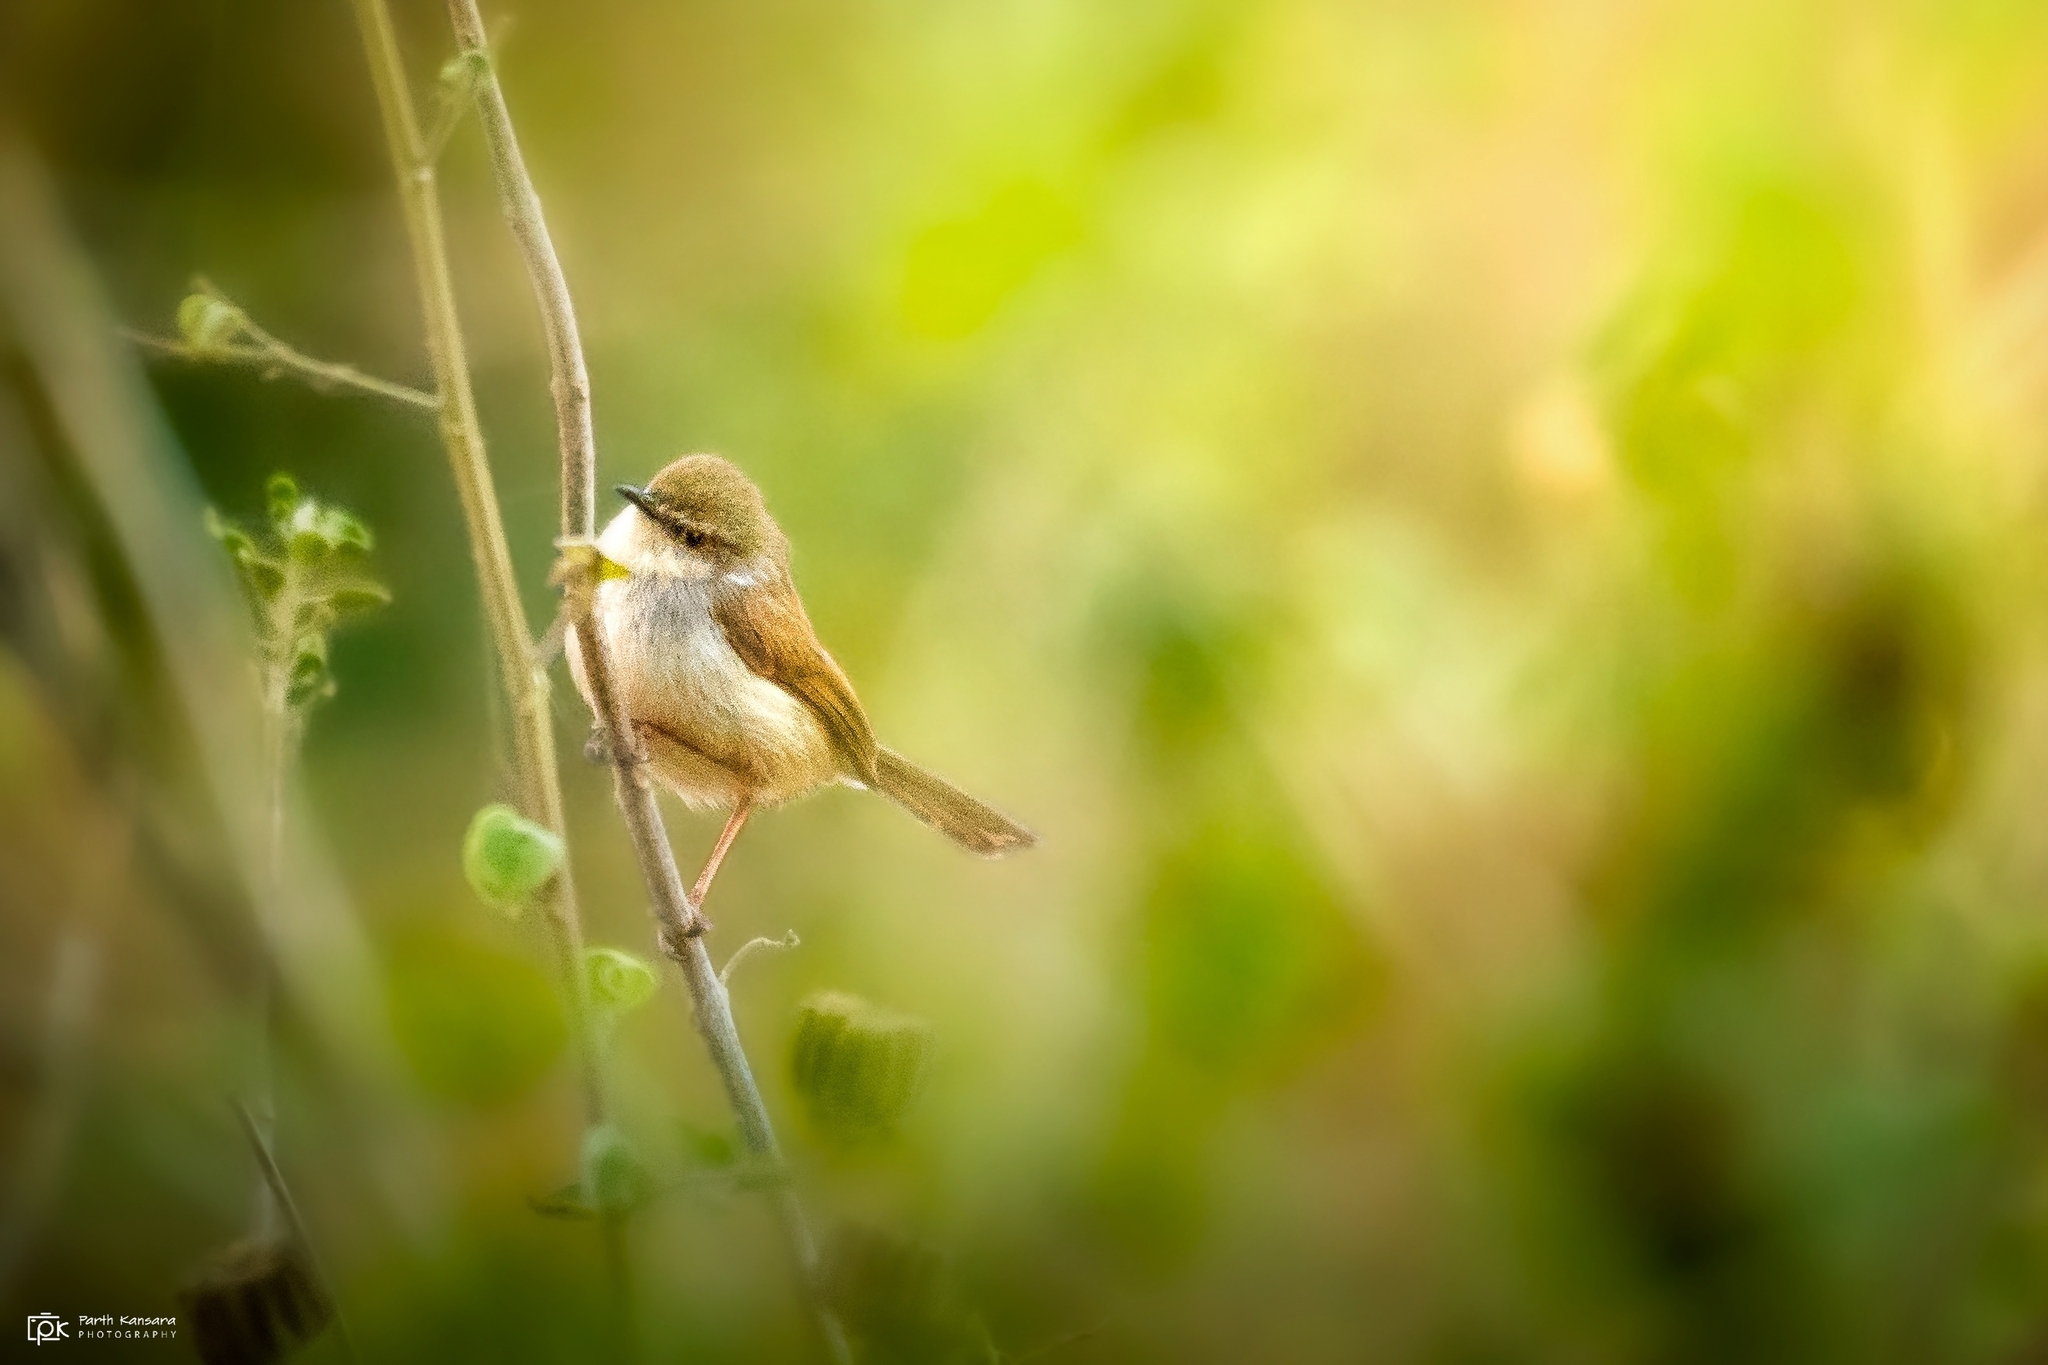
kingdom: Animalia
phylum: Chordata
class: Aves
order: Passeriformes
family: Cisticolidae
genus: Prinia
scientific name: Prinia hodgsonii
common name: Grey-breasted prinia
